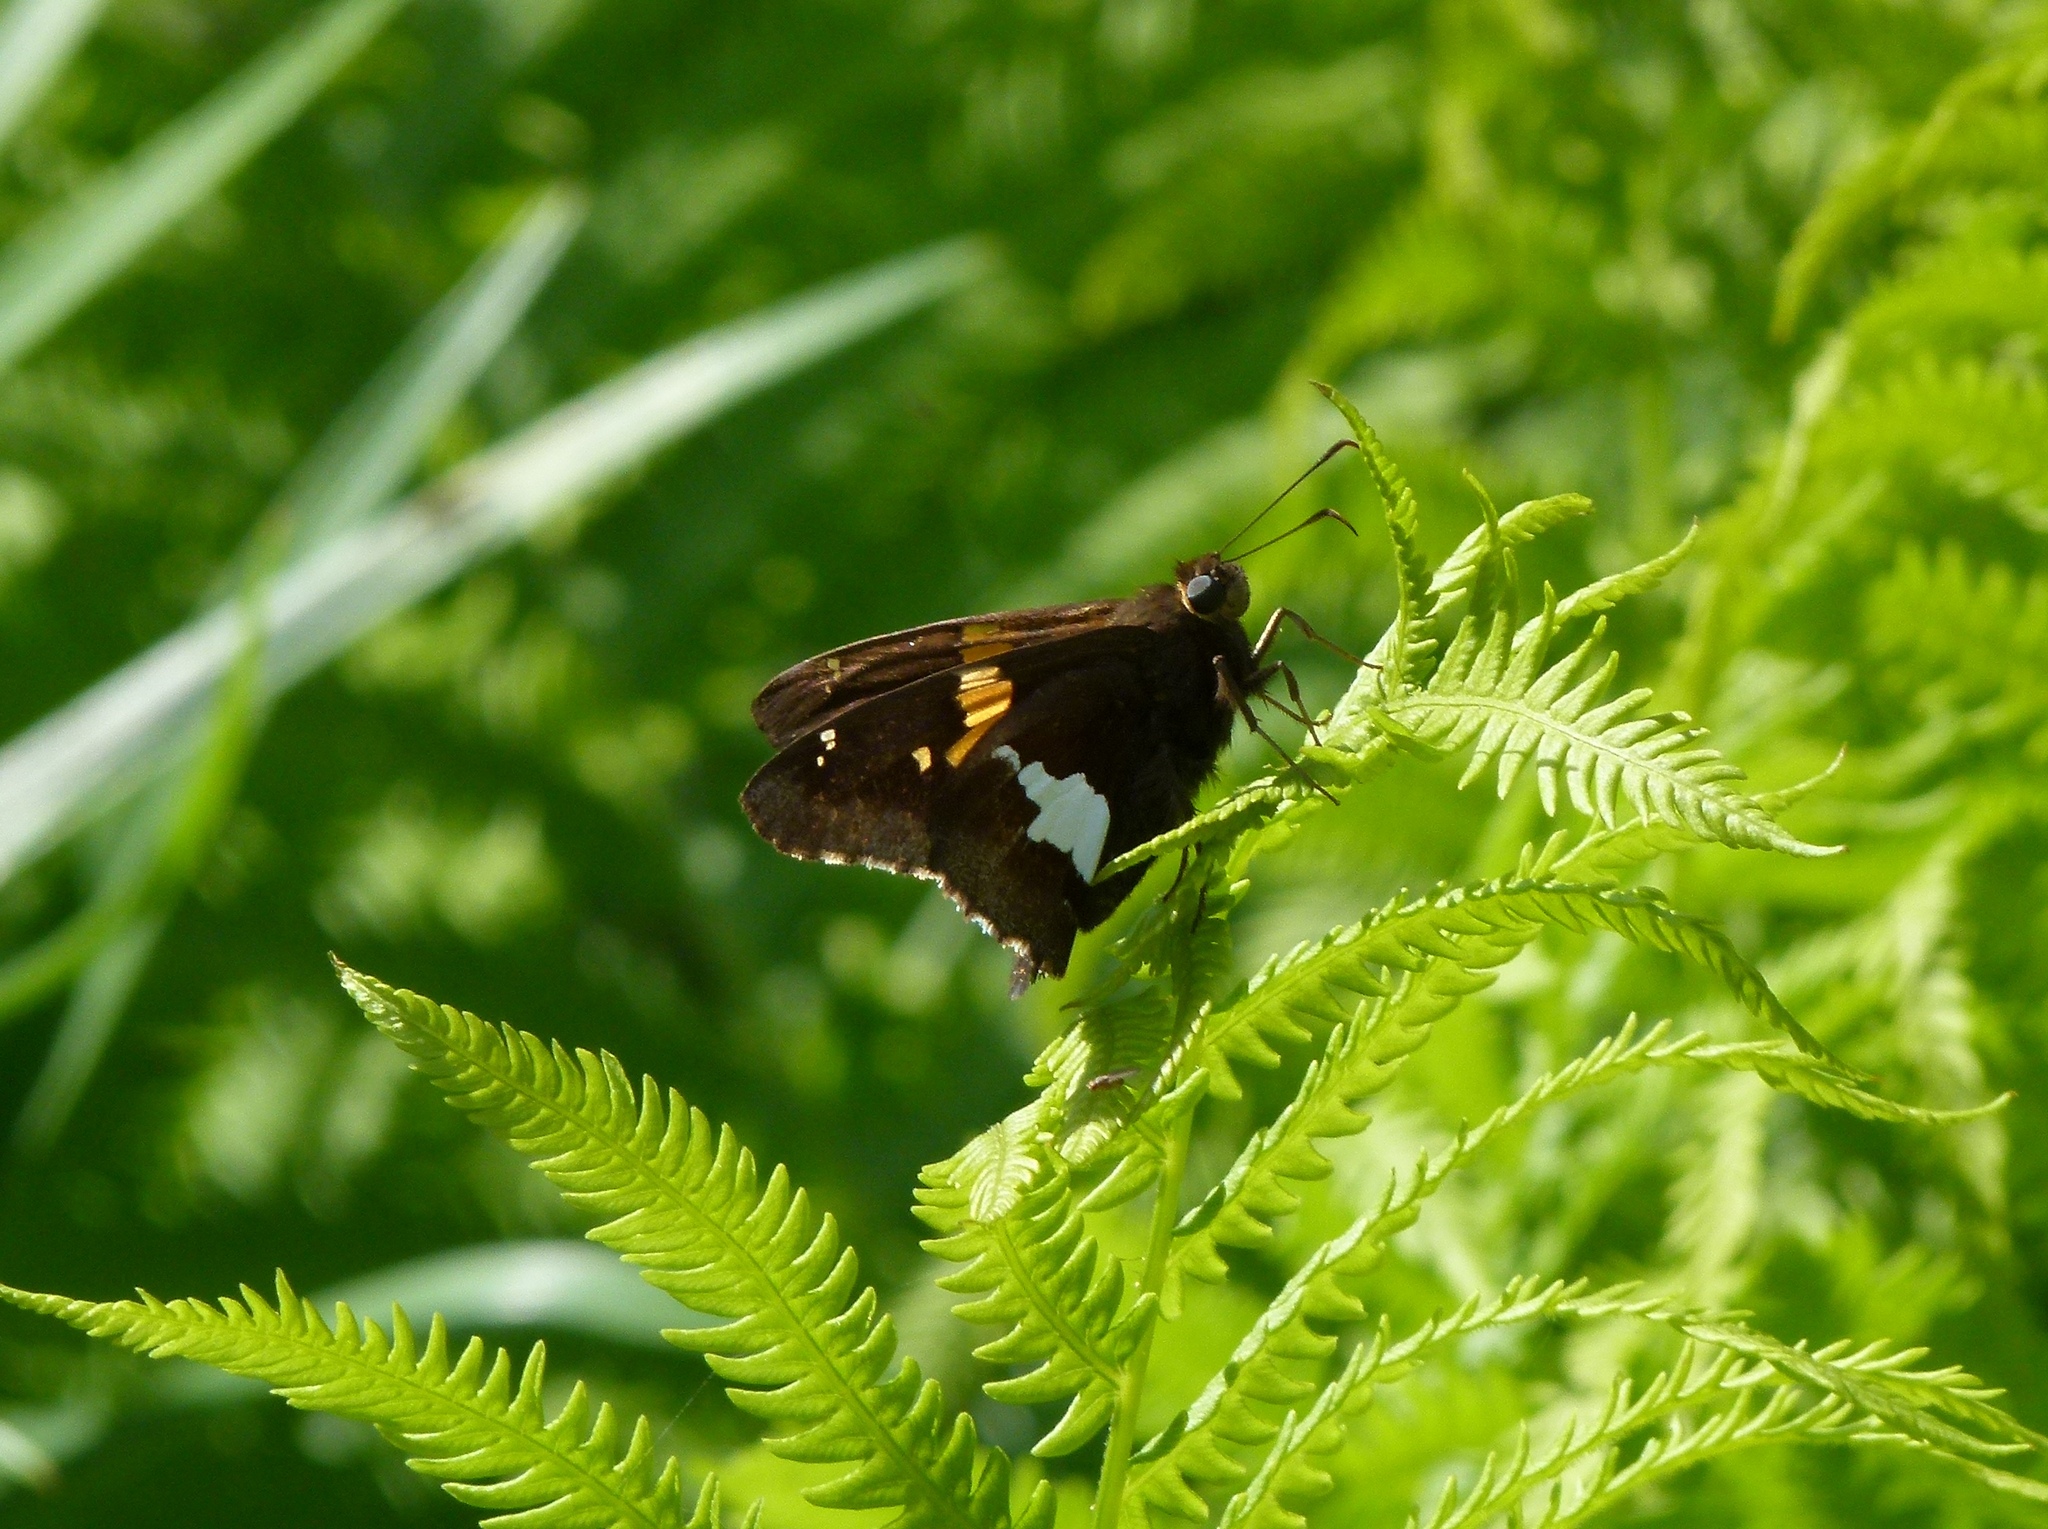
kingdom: Animalia
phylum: Arthropoda
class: Insecta
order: Lepidoptera
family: Hesperiidae
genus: Epargyreus
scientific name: Epargyreus clarus
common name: Silver-spotted skipper
